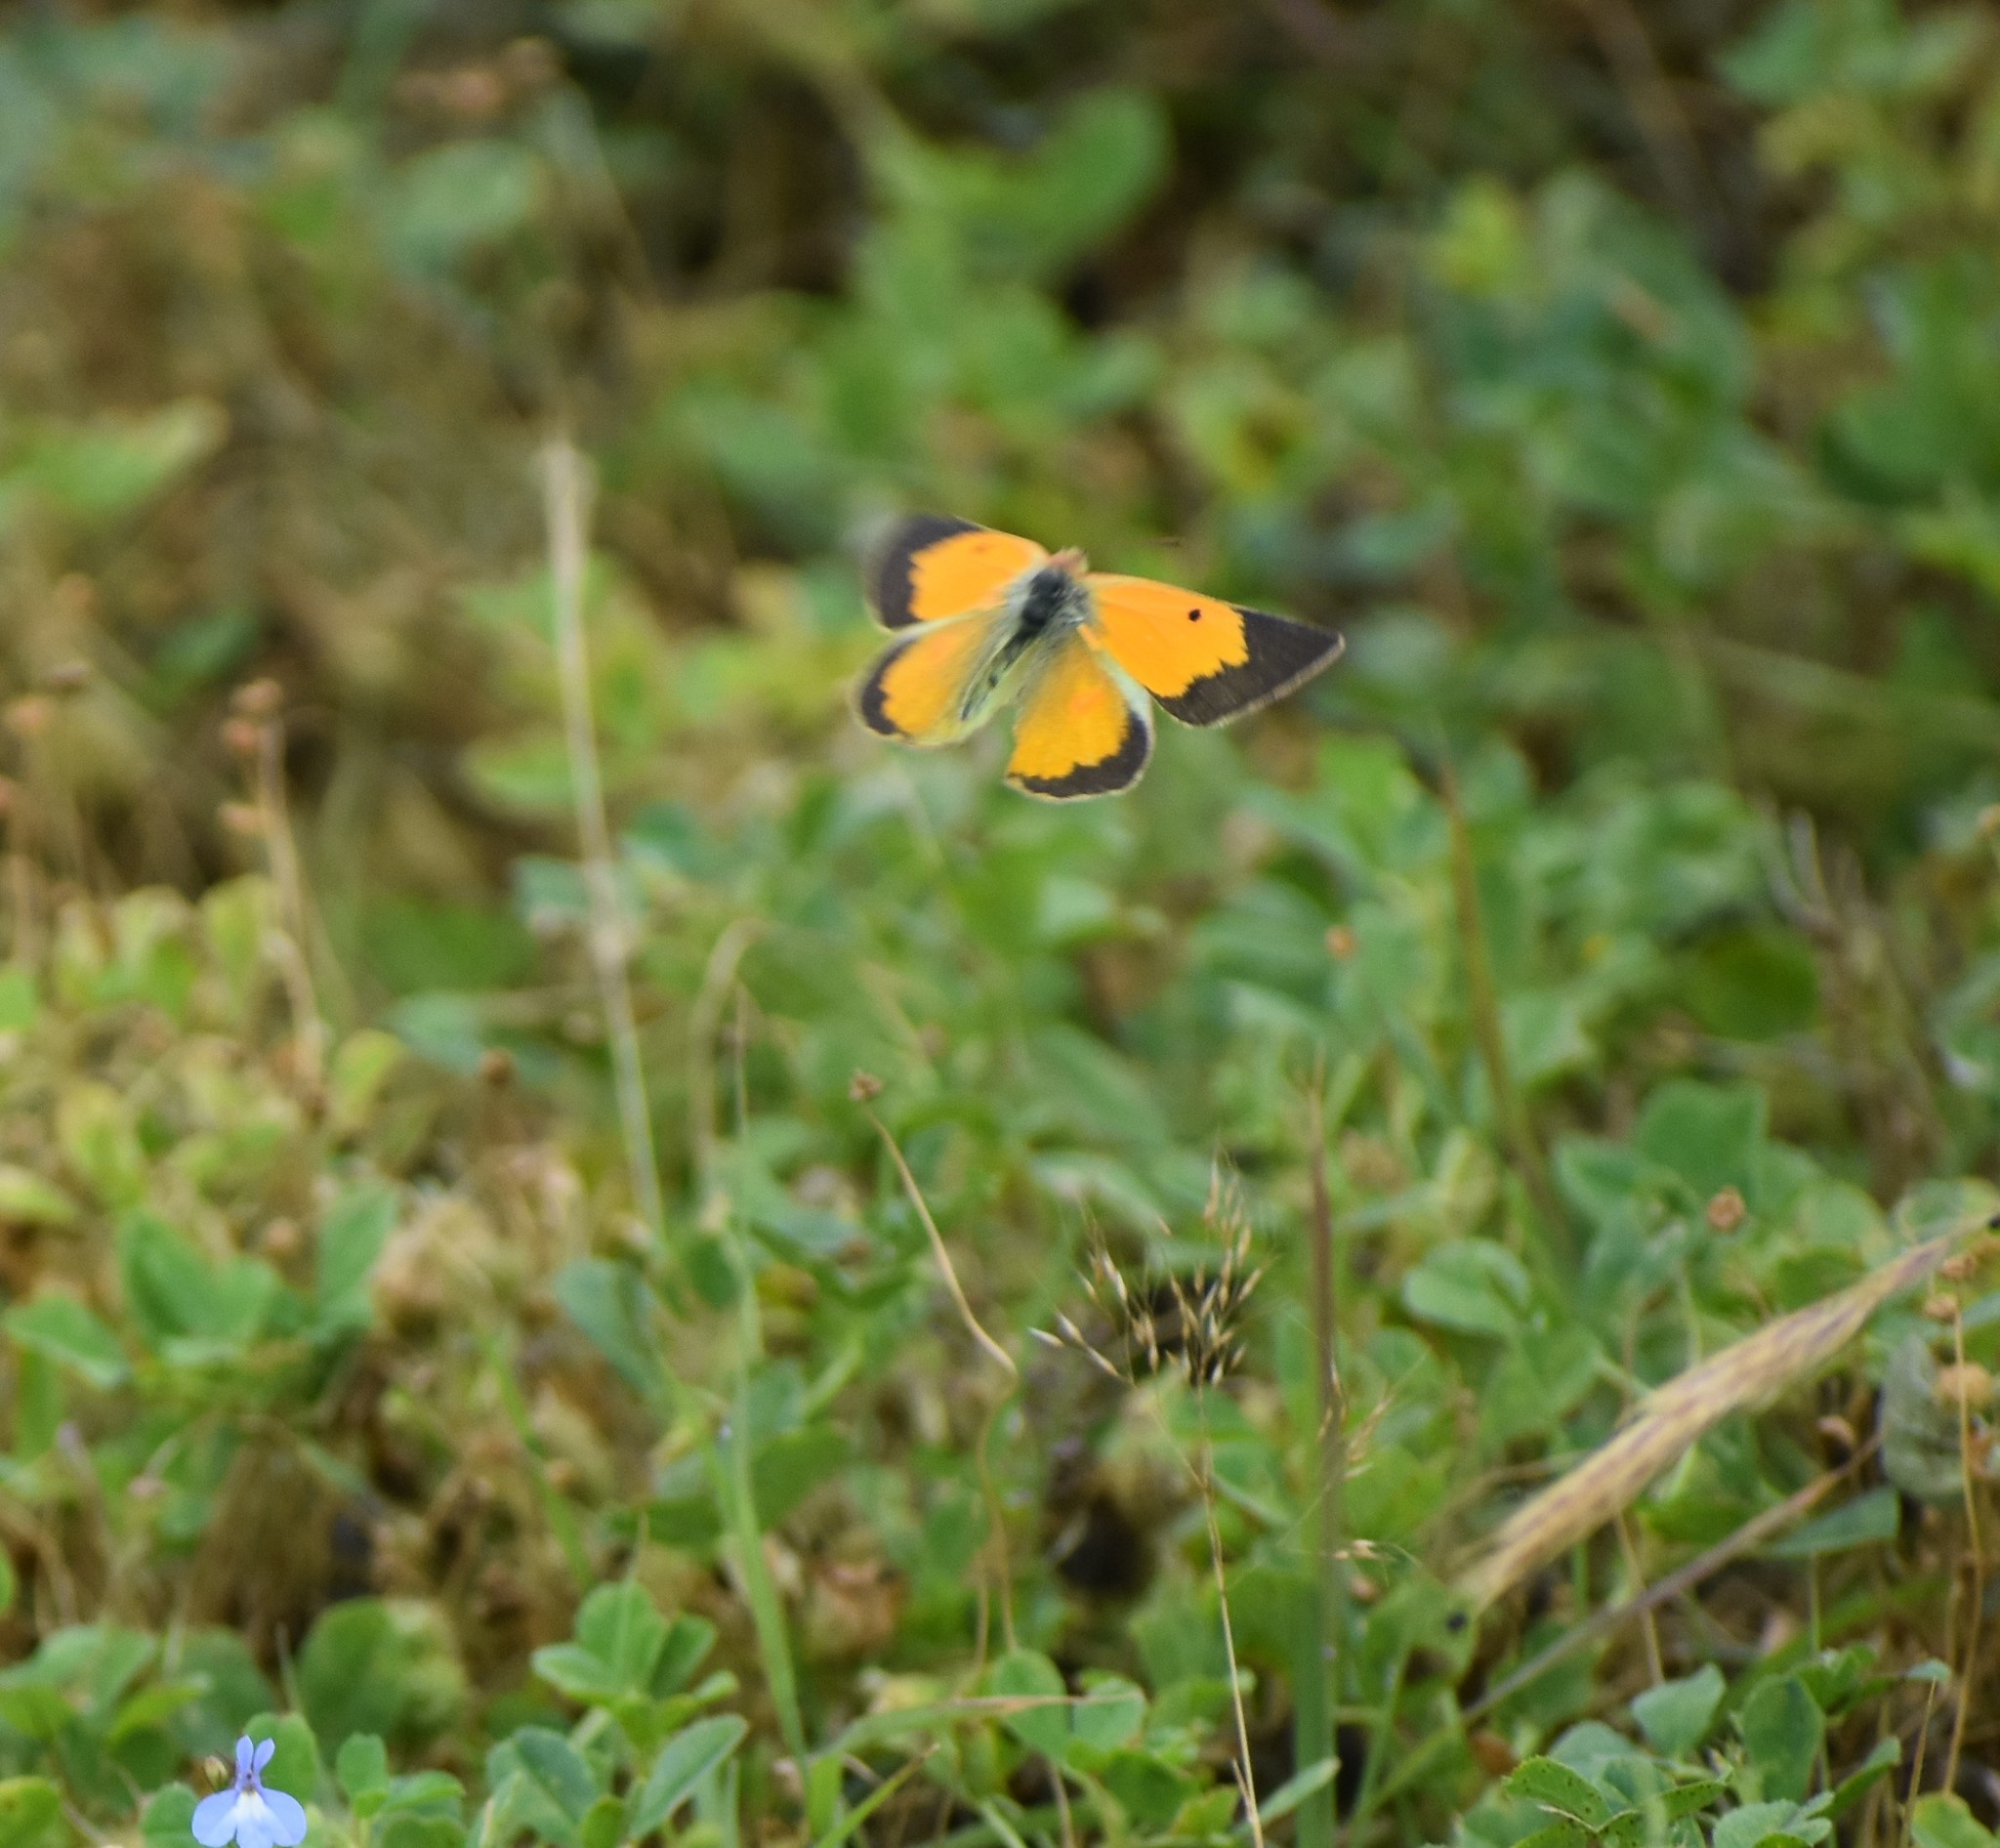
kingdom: Animalia
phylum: Arthropoda
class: Insecta
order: Lepidoptera
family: Pieridae
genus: Colias
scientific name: Colias electo
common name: African clouded yellow
